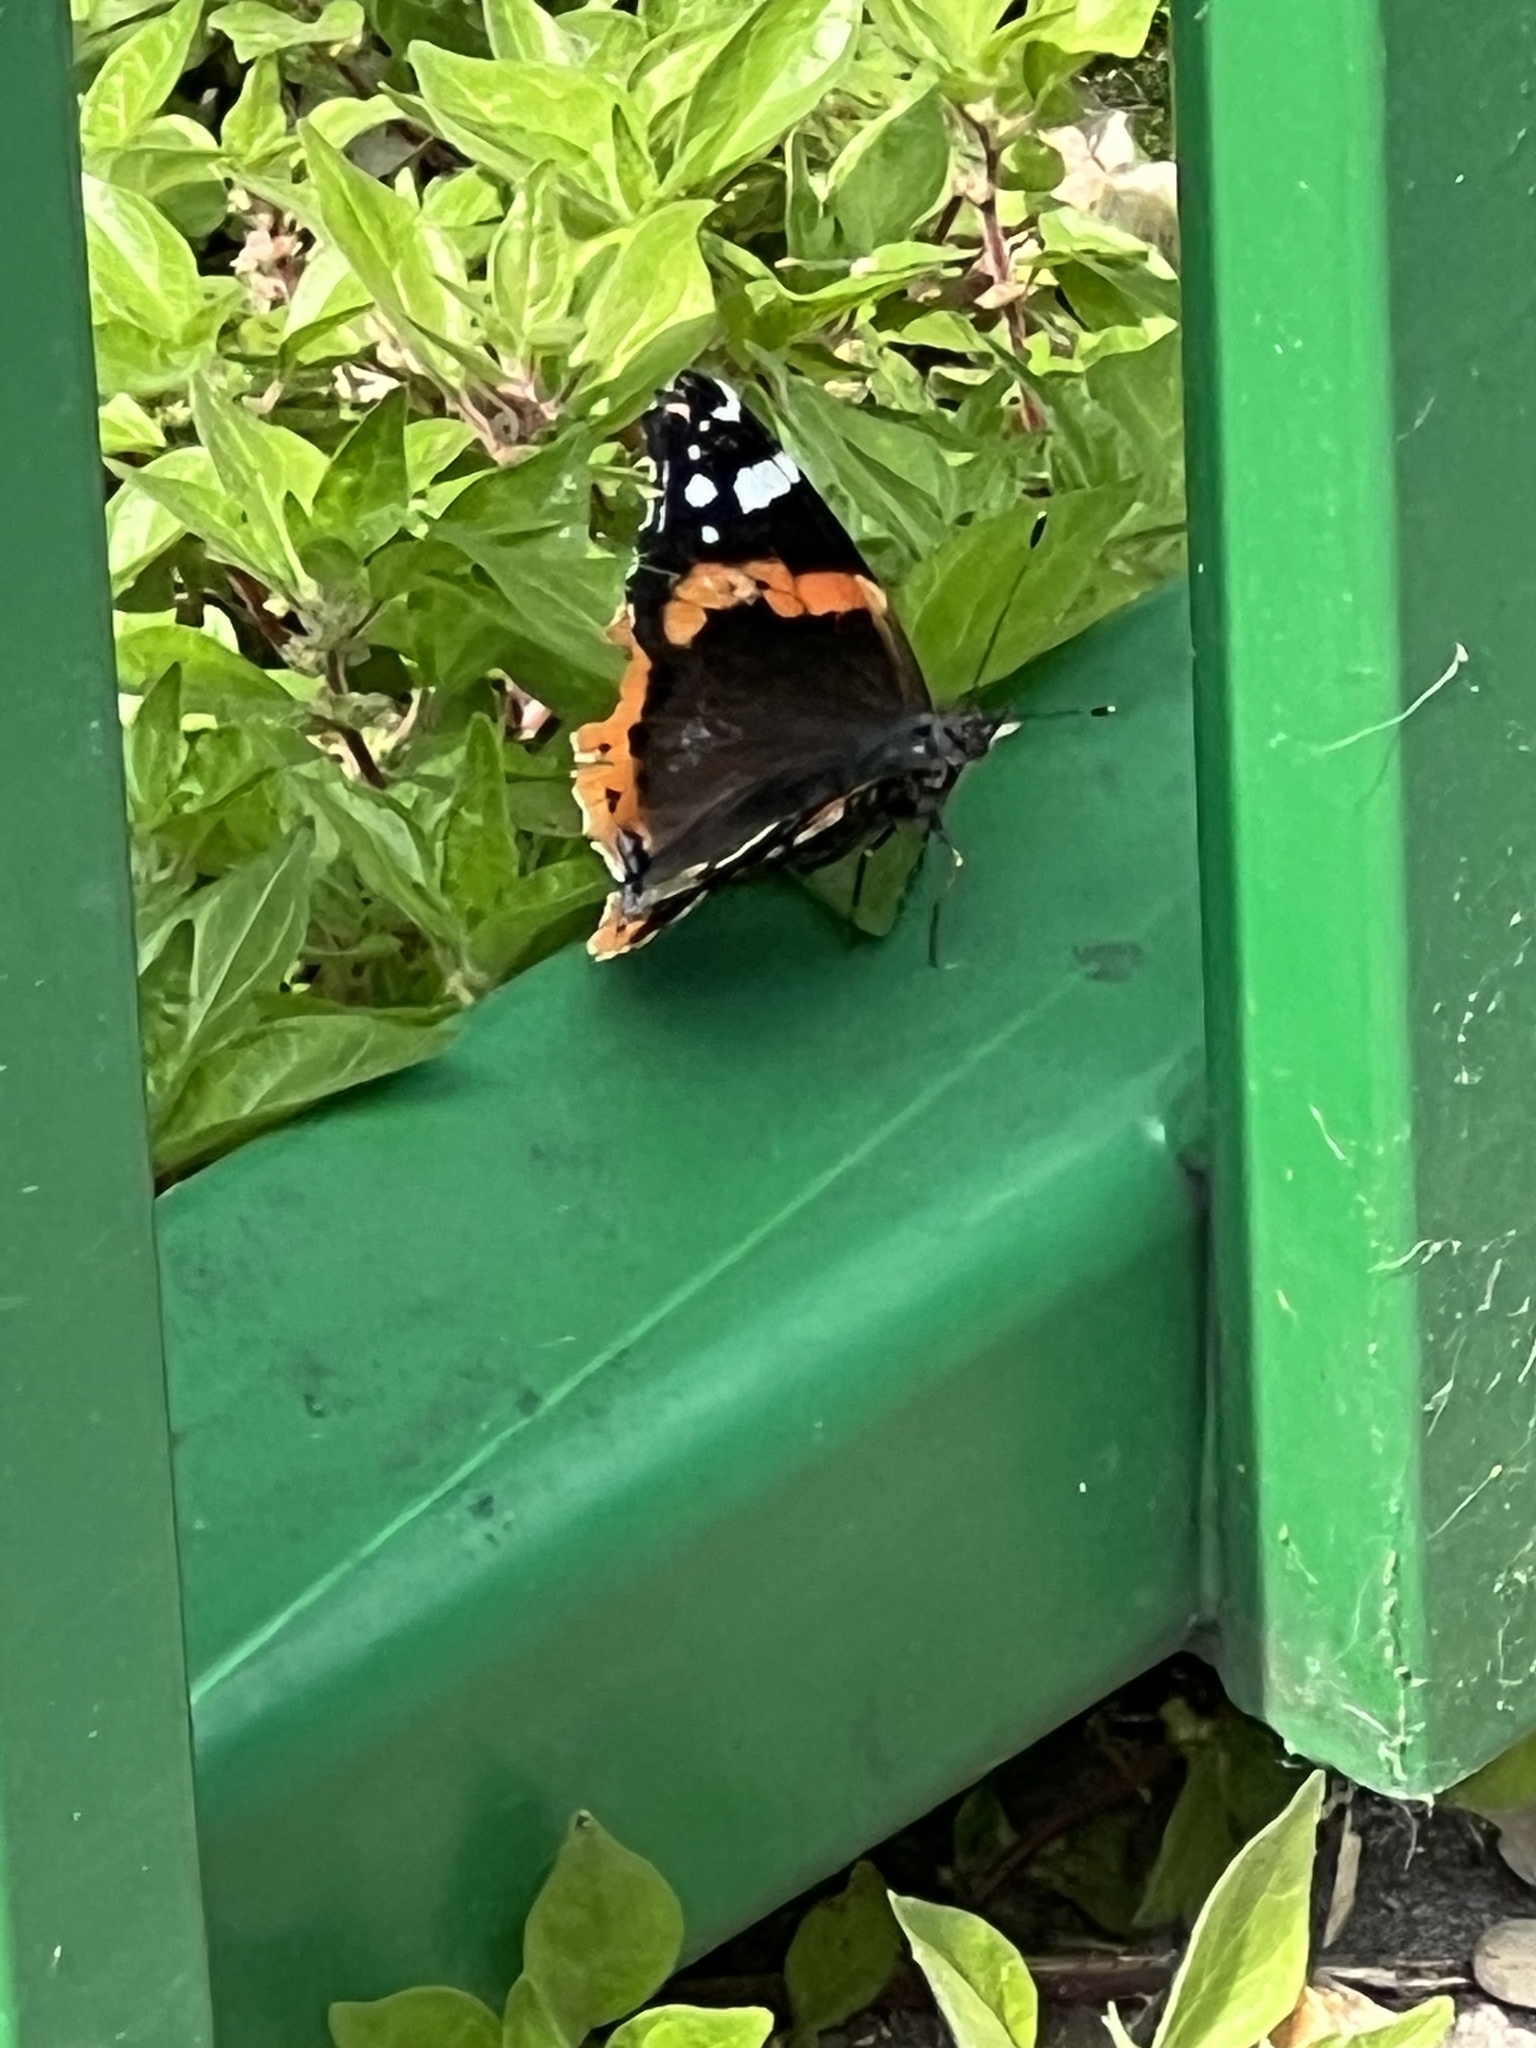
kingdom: Animalia
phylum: Arthropoda
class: Insecta
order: Lepidoptera
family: Nymphalidae
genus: Vanessa
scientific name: Vanessa atalanta
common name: Red admiral
